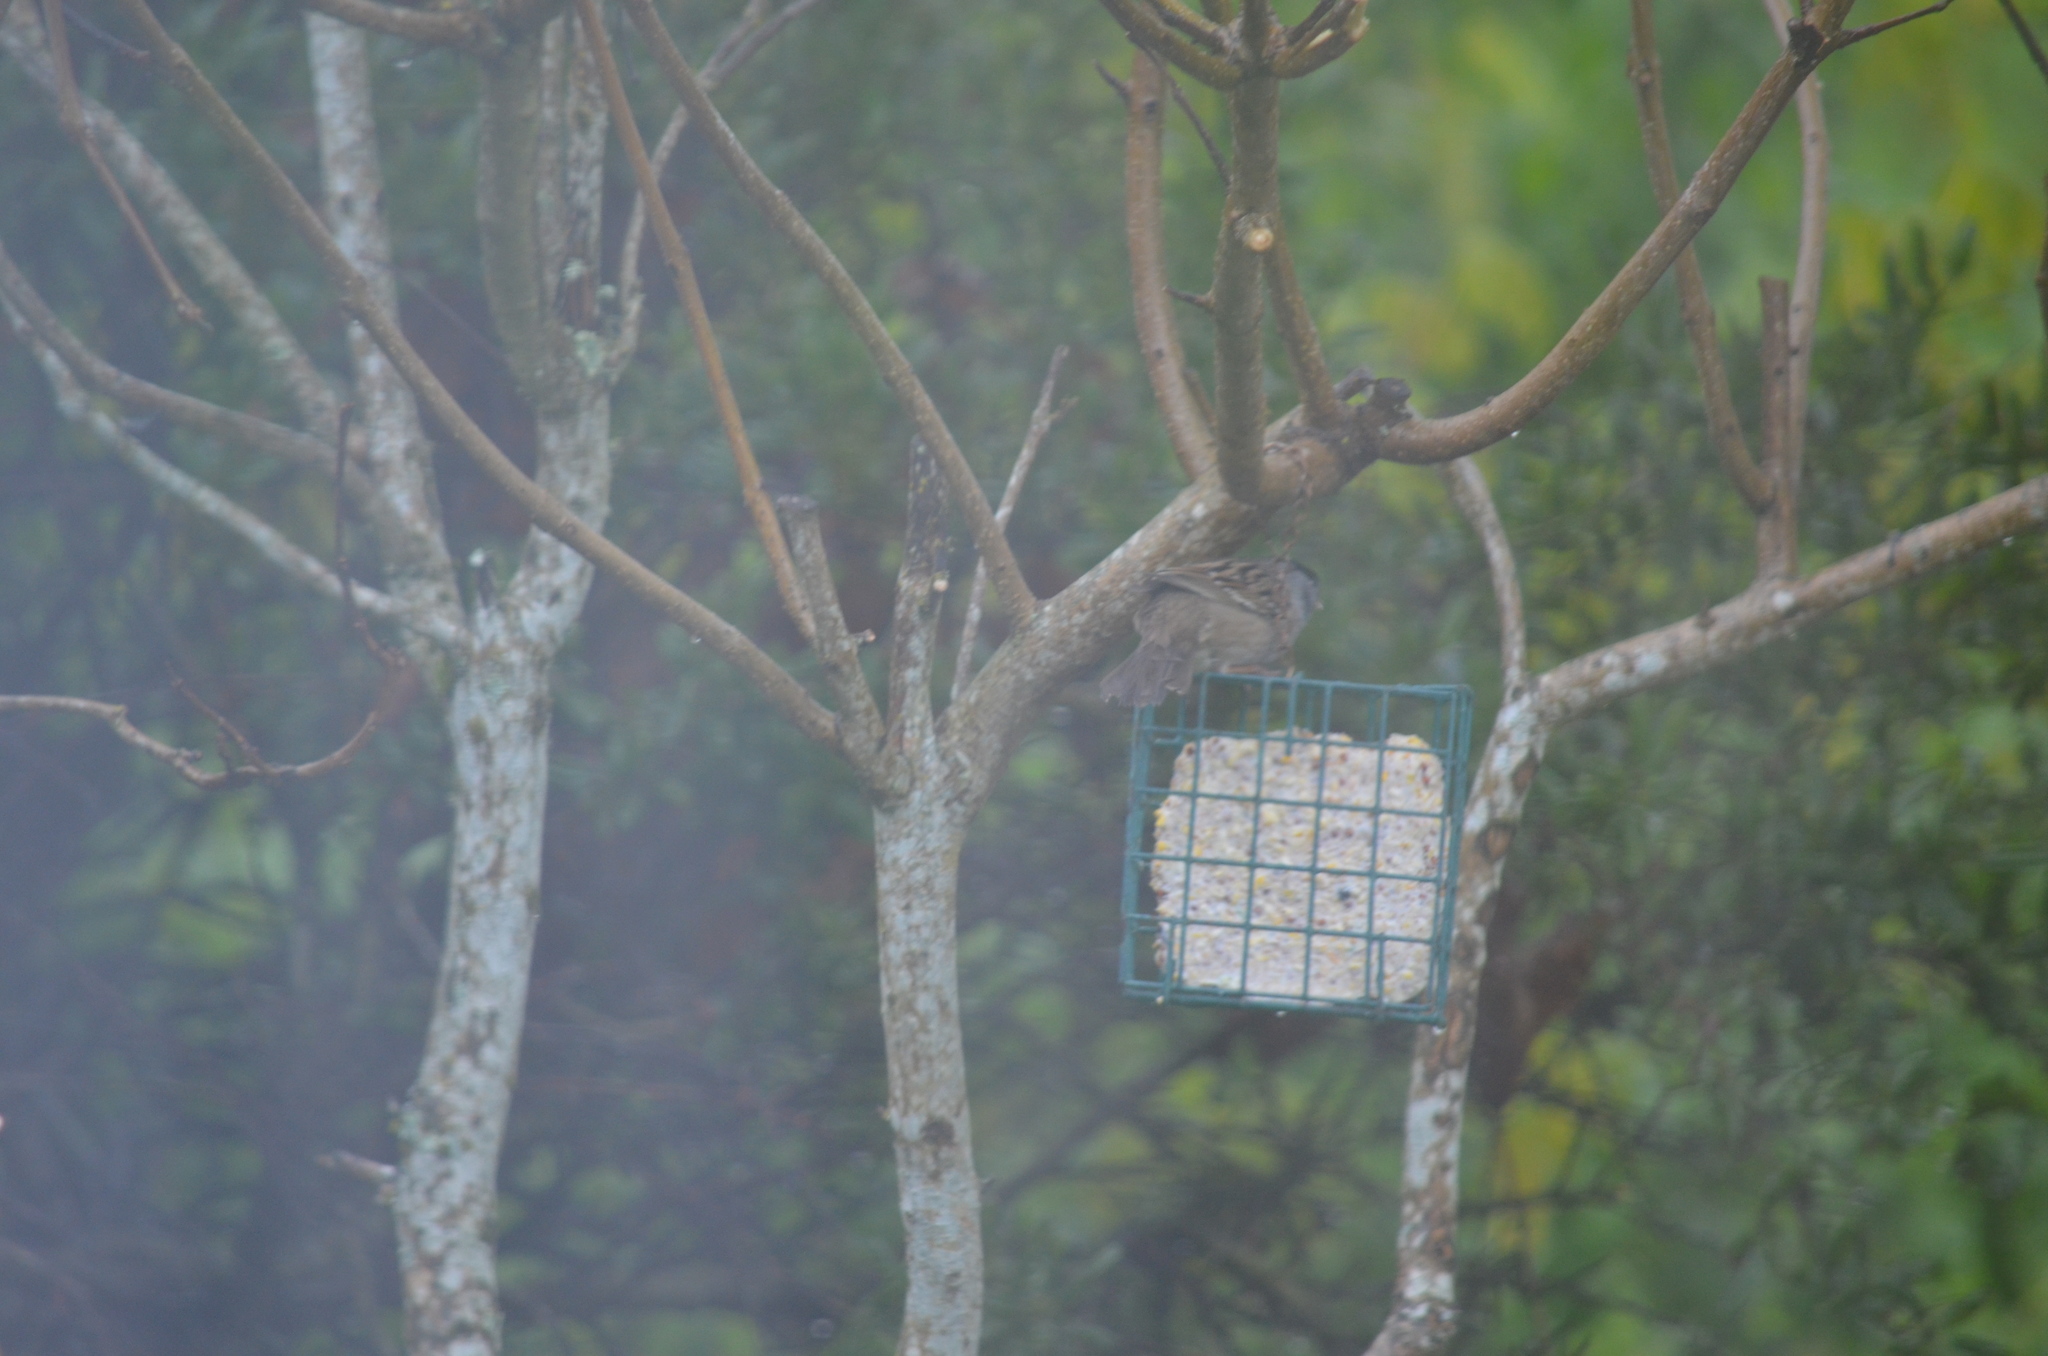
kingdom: Animalia
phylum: Chordata
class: Aves
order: Passeriformes
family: Passerellidae
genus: Zonotrichia
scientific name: Zonotrichia atricapilla
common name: Golden-crowned sparrow
